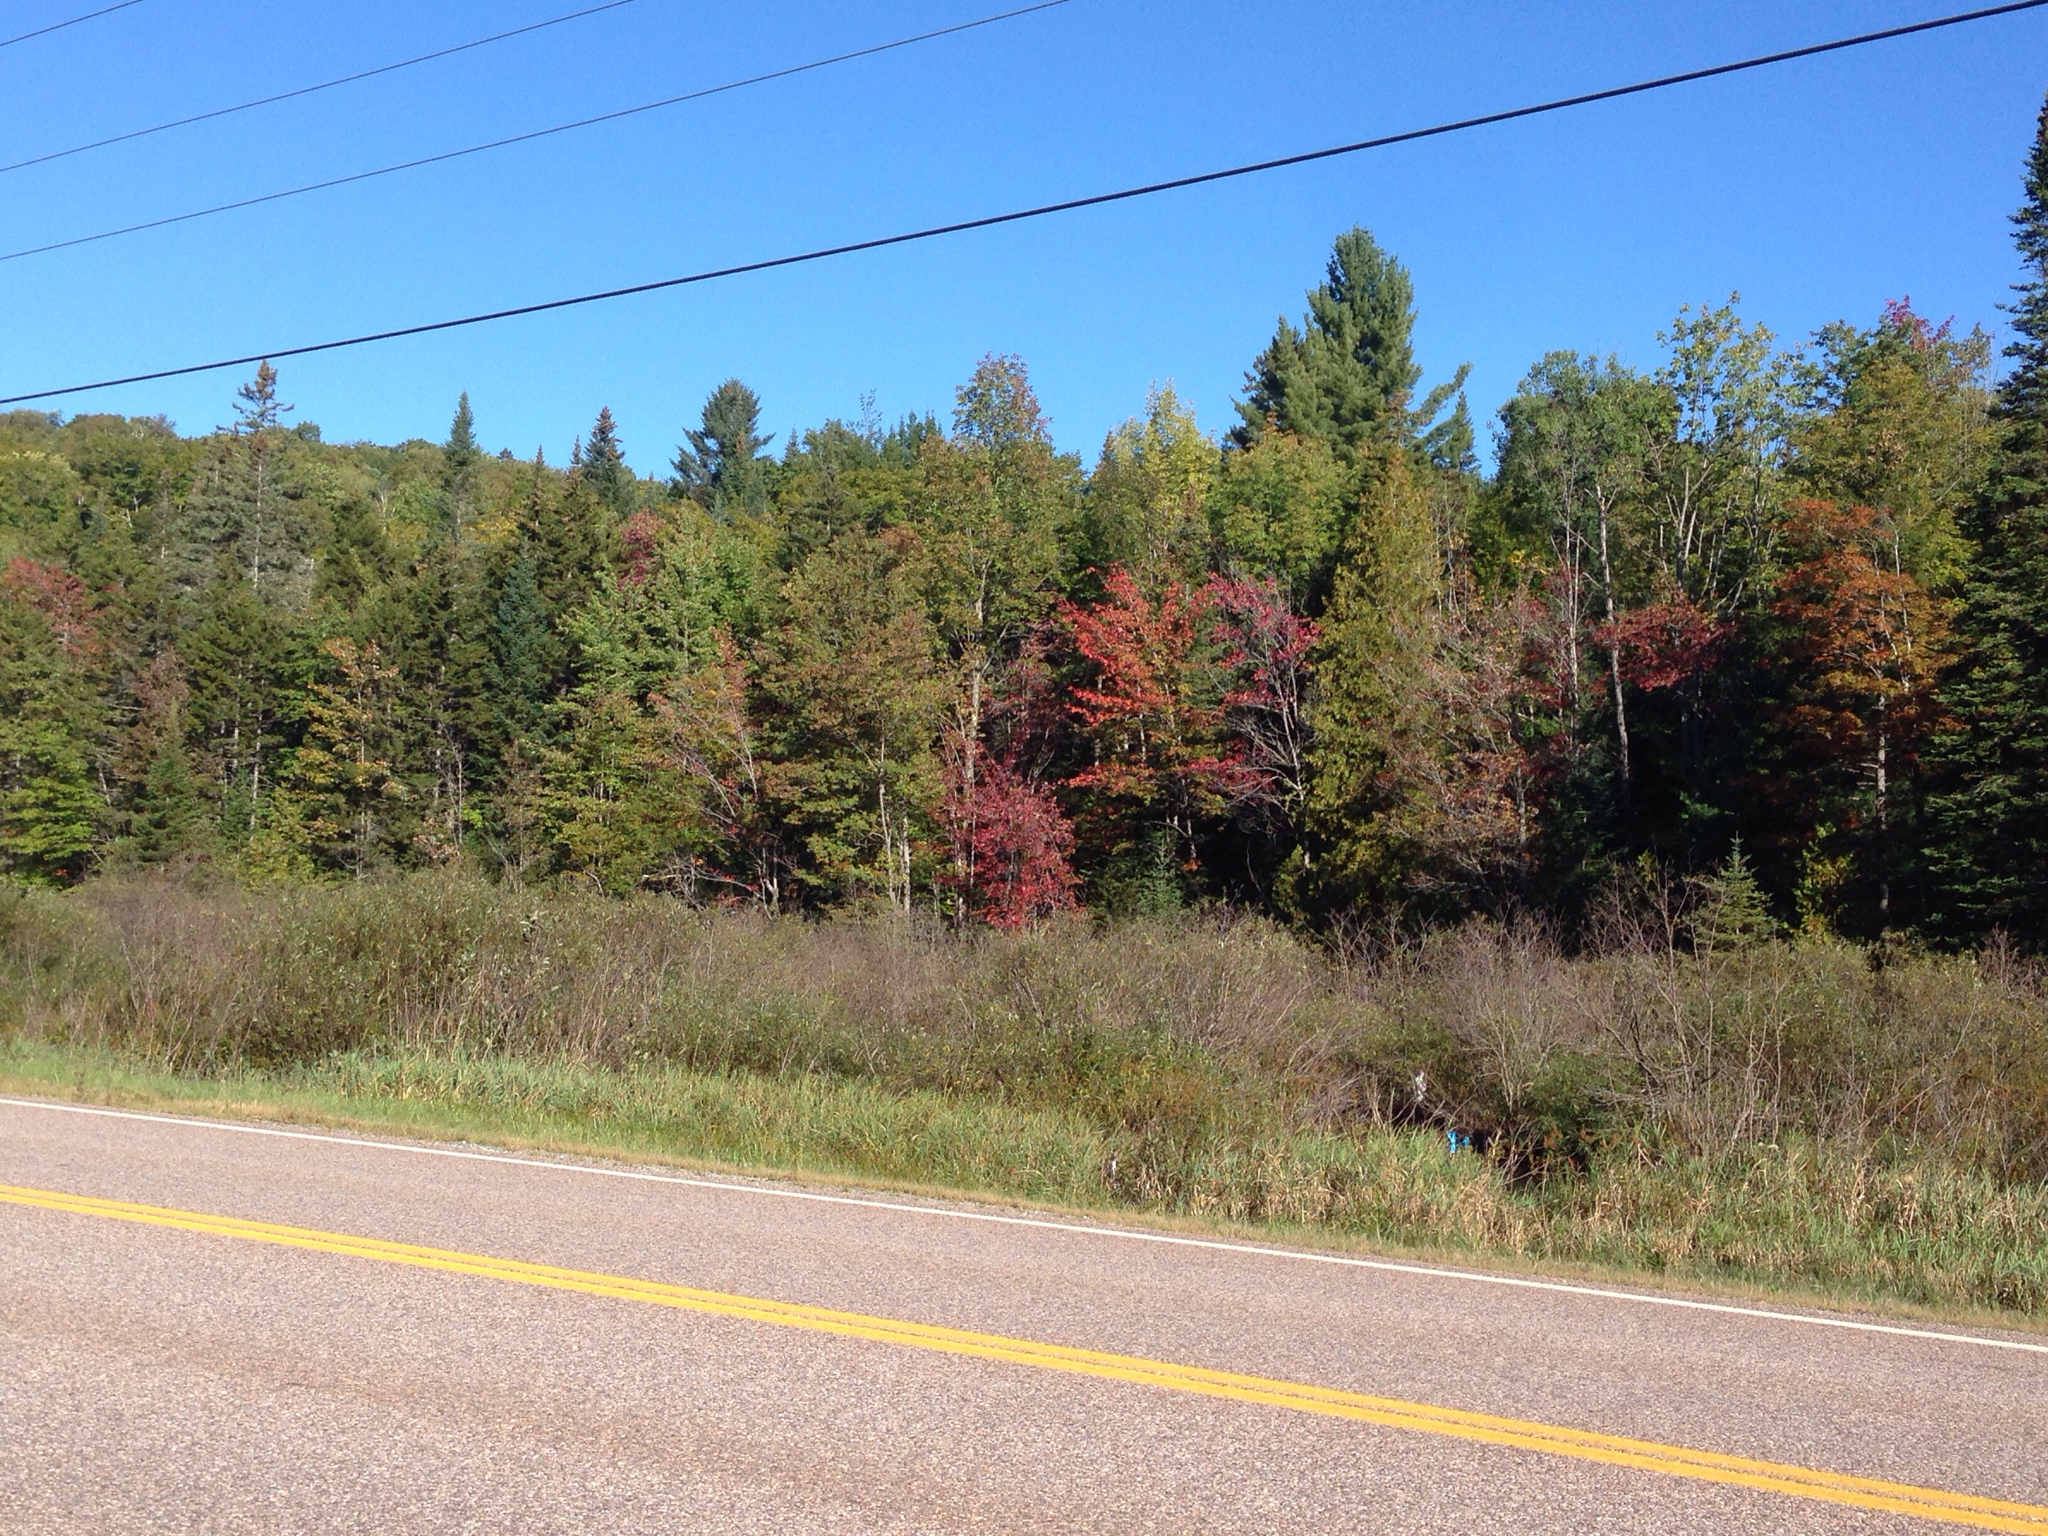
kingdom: Plantae
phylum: Tracheophyta
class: Magnoliopsida
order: Sapindales
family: Sapindaceae
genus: Acer
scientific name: Acer rubrum
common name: Red maple
